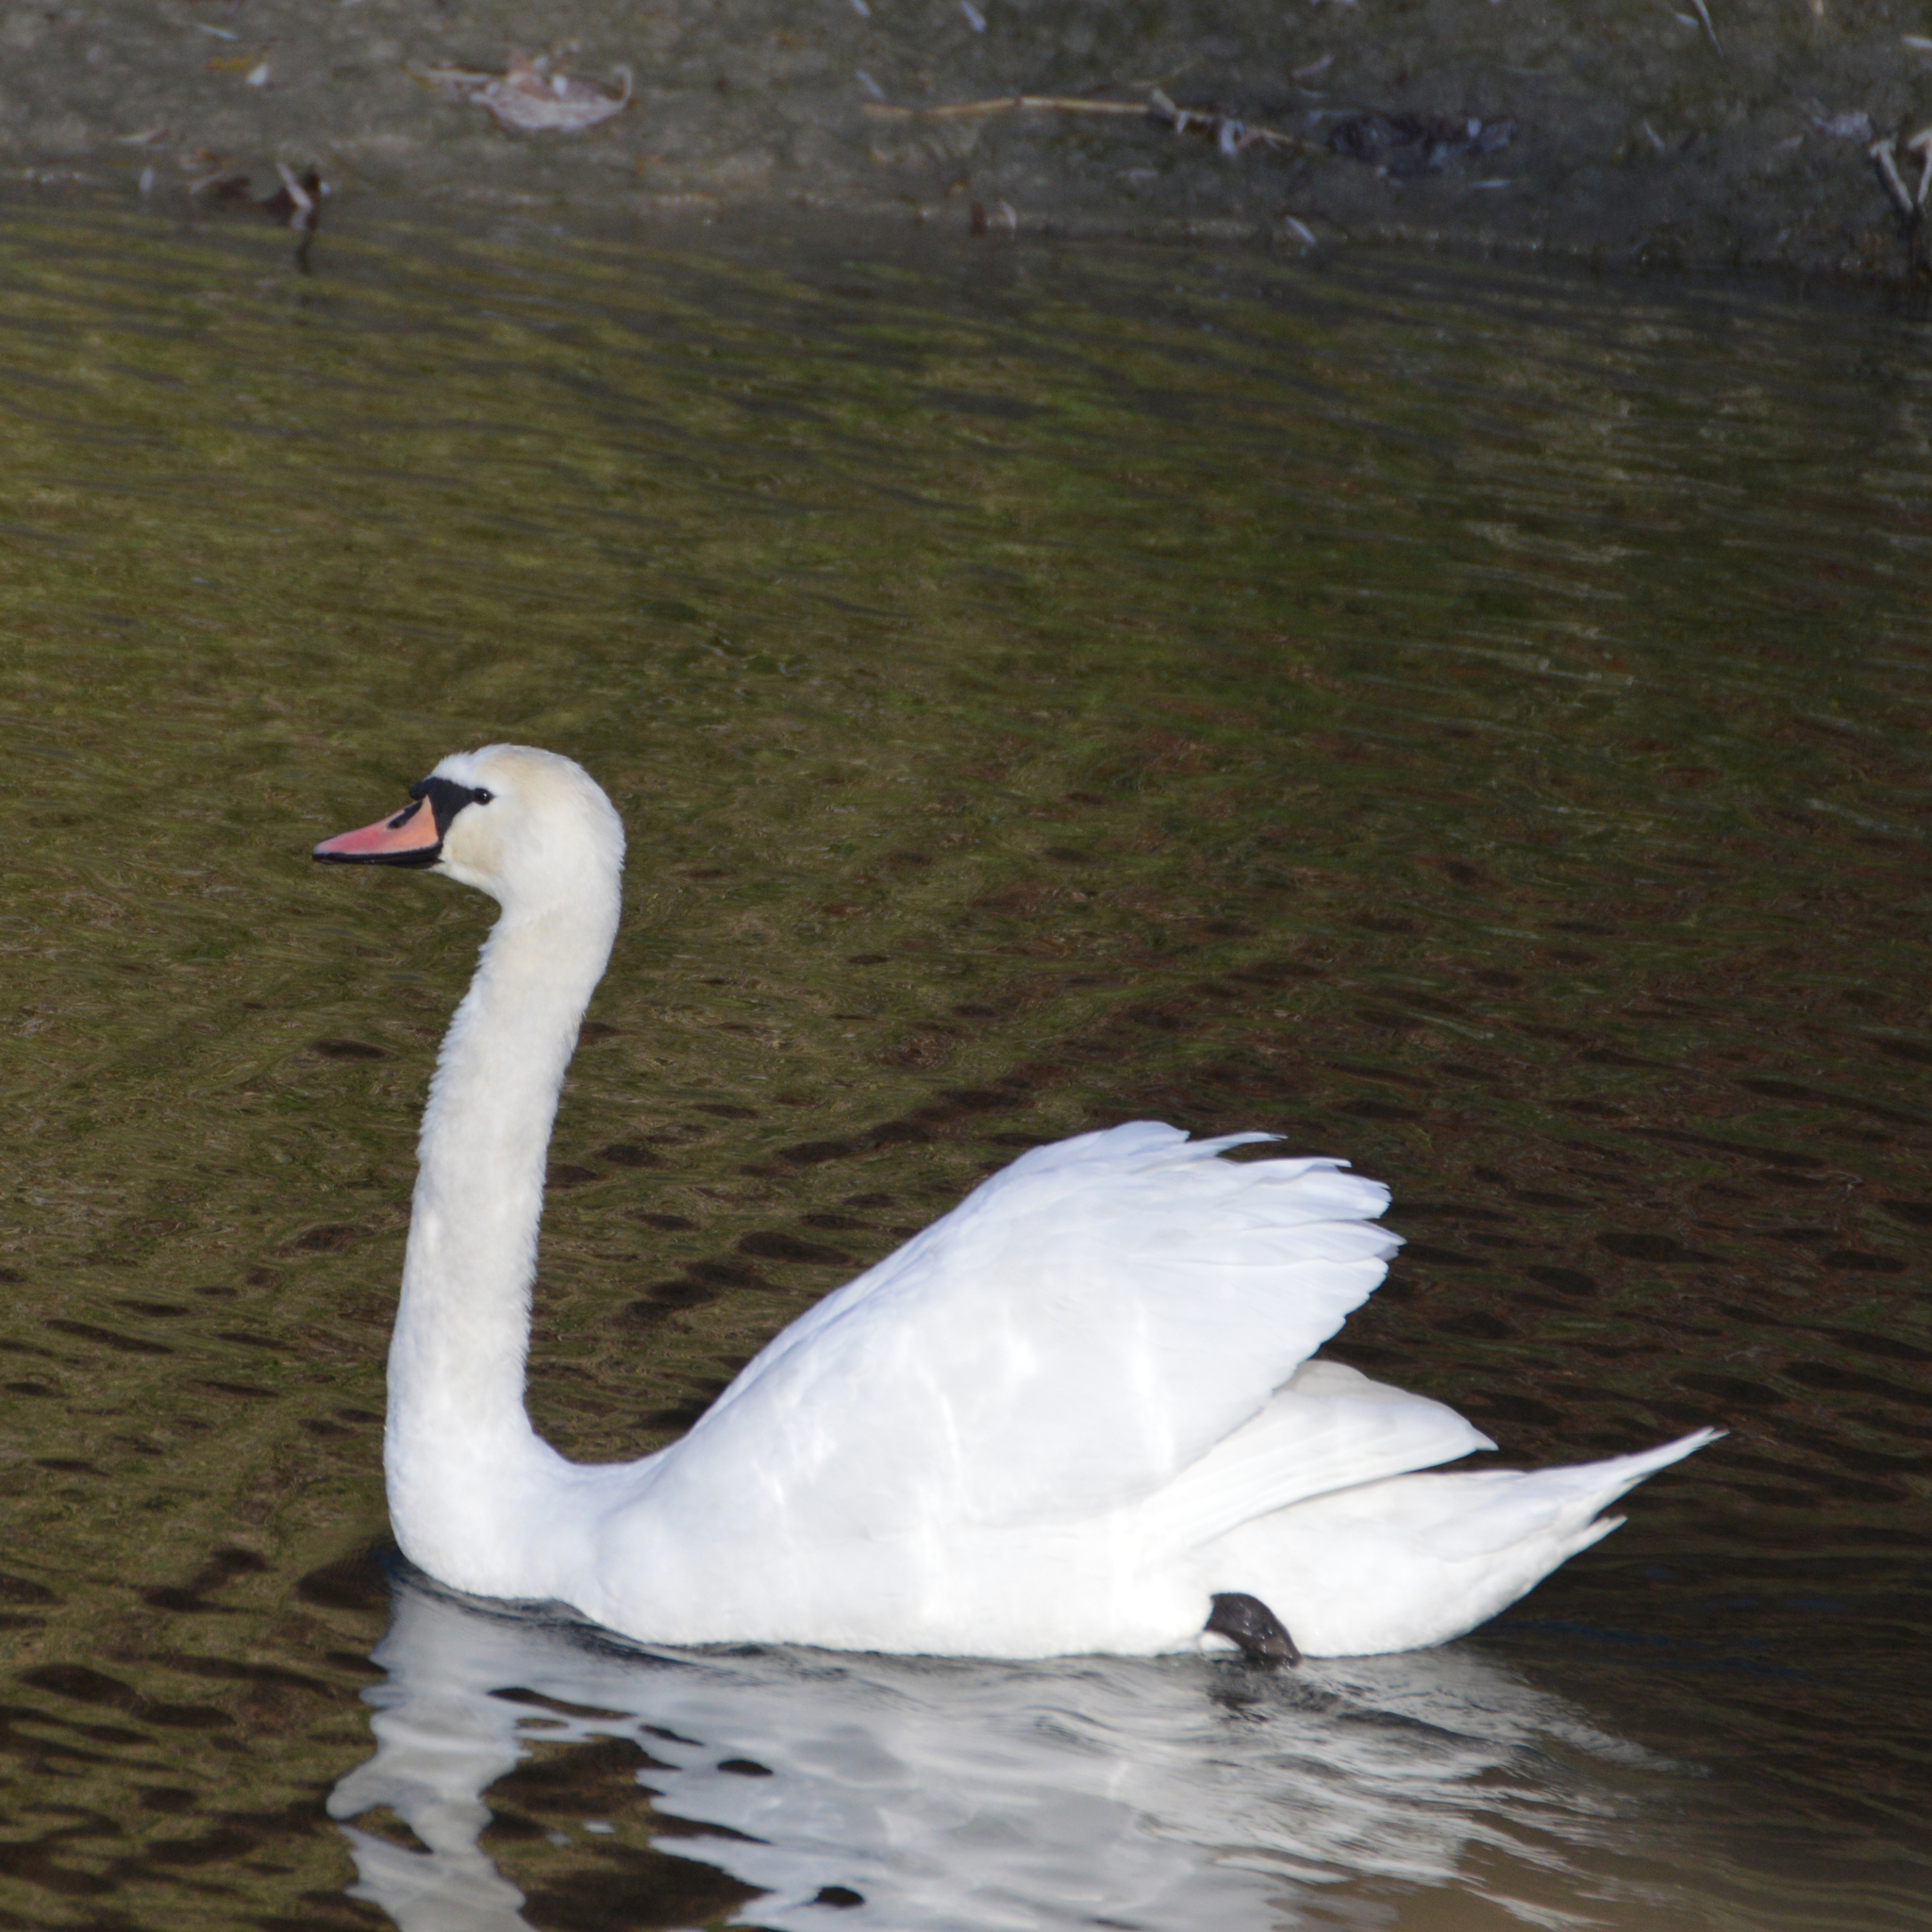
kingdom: Animalia
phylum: Chordata
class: Aves
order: Anseriformes
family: Anatidae
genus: Cygnus
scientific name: Cygnus olor
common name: Mute swan
